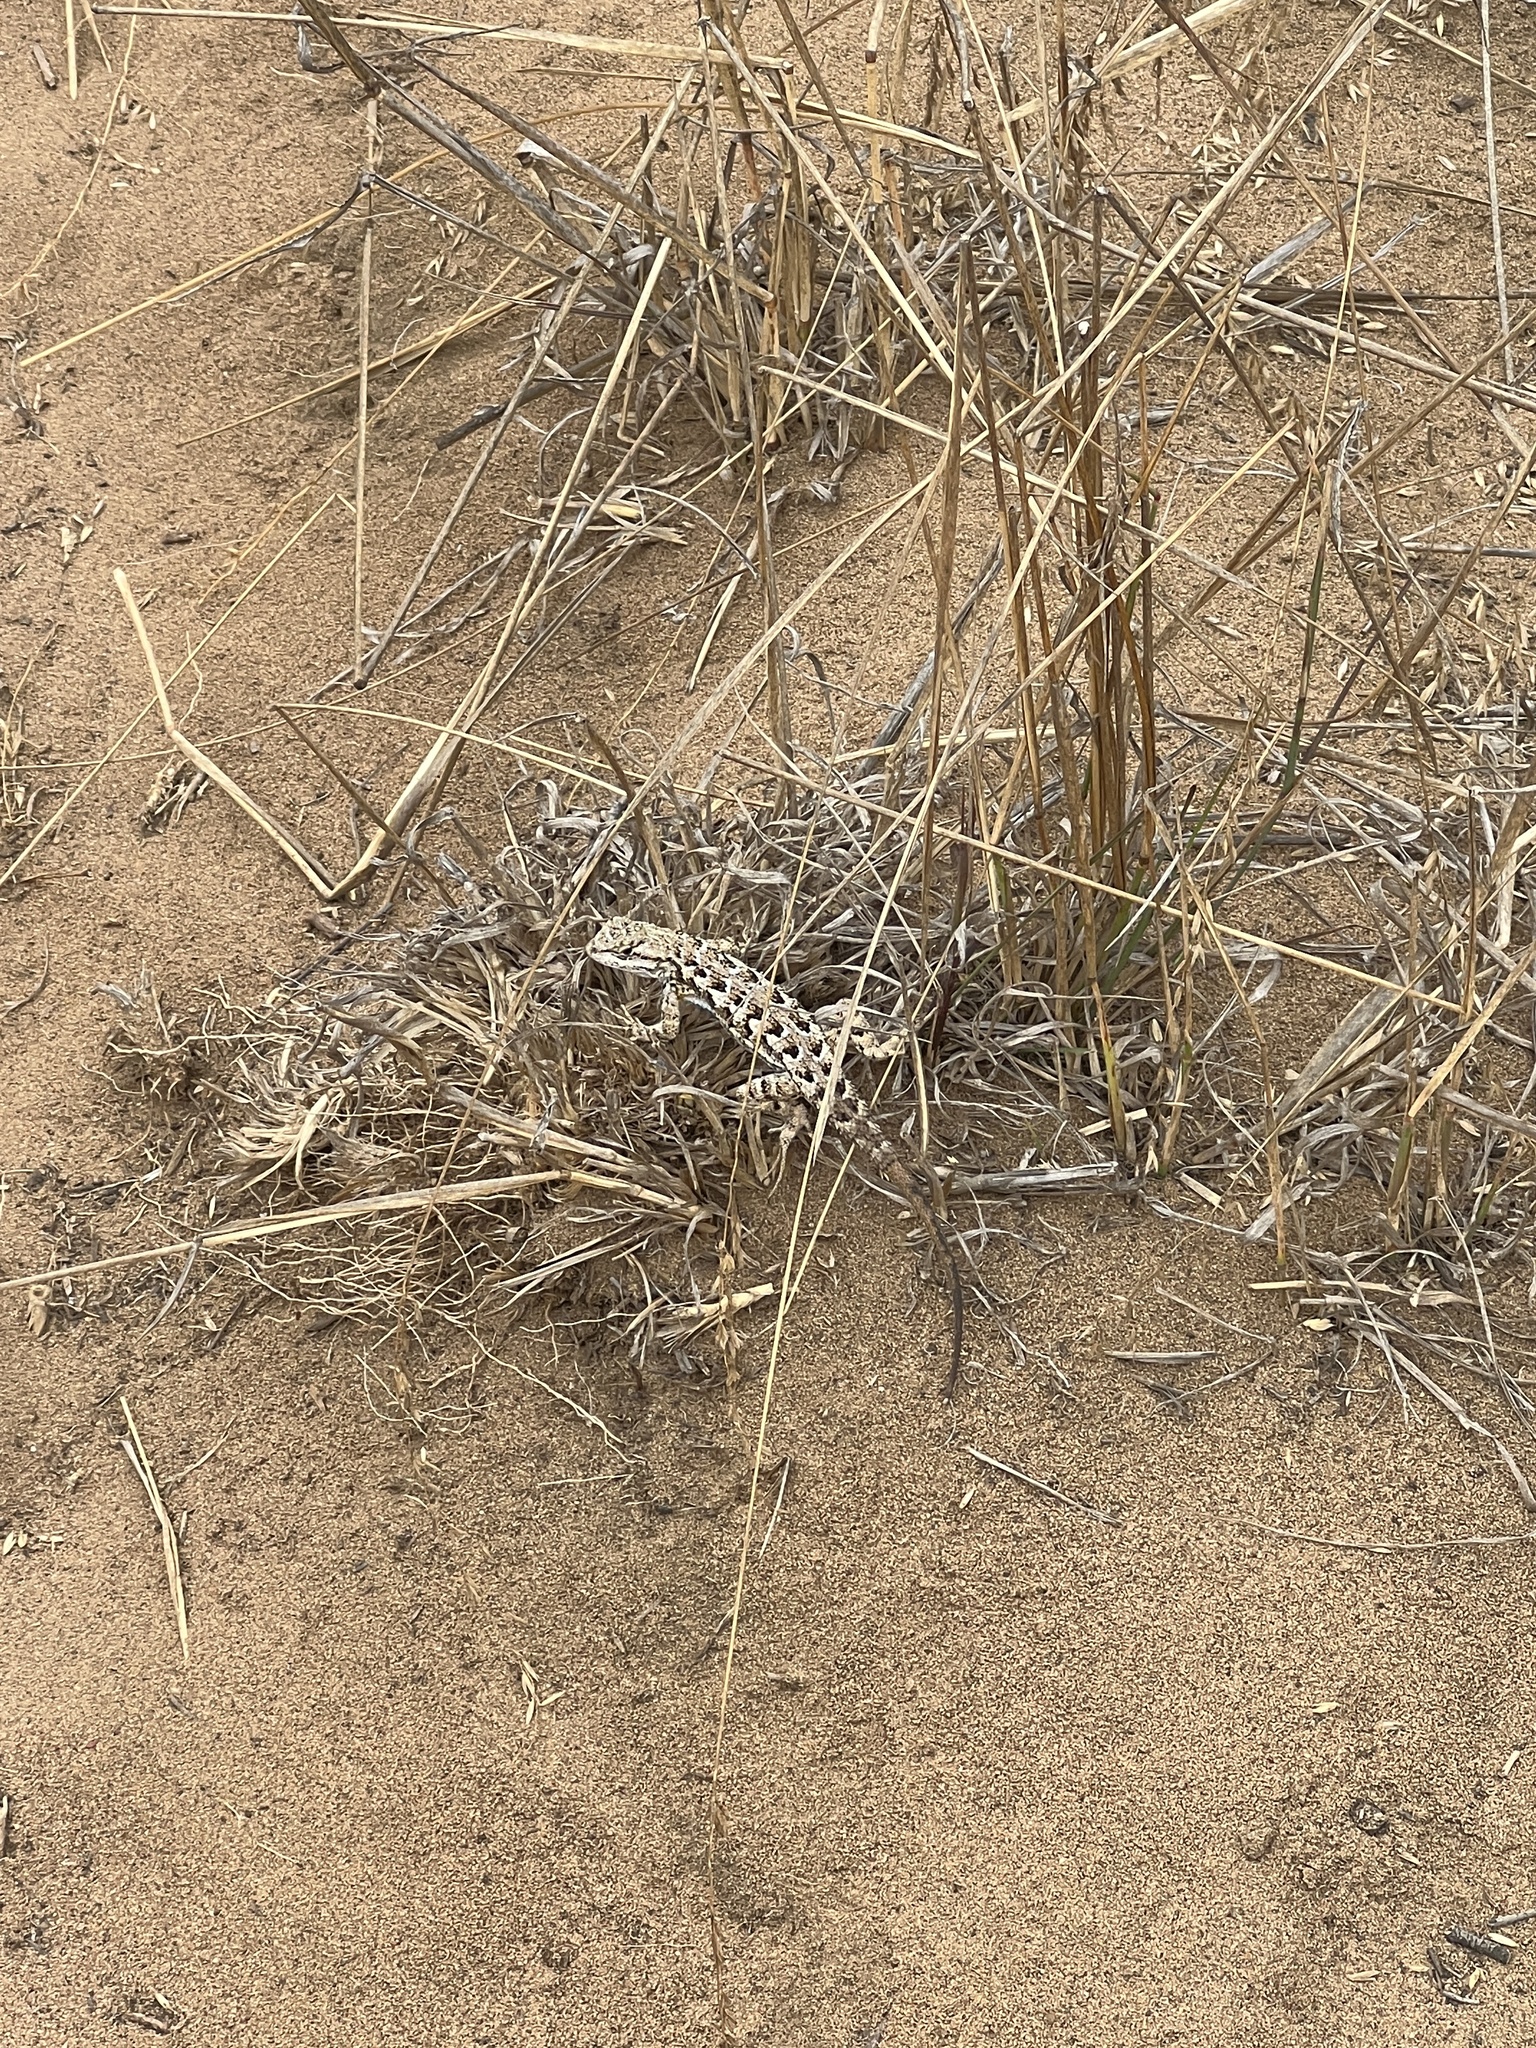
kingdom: Animalia
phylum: Chordata
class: Squamata
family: Phrynosomatidae
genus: Sceloporus
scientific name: Sceloporus occidentalis
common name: Western fence lizard
